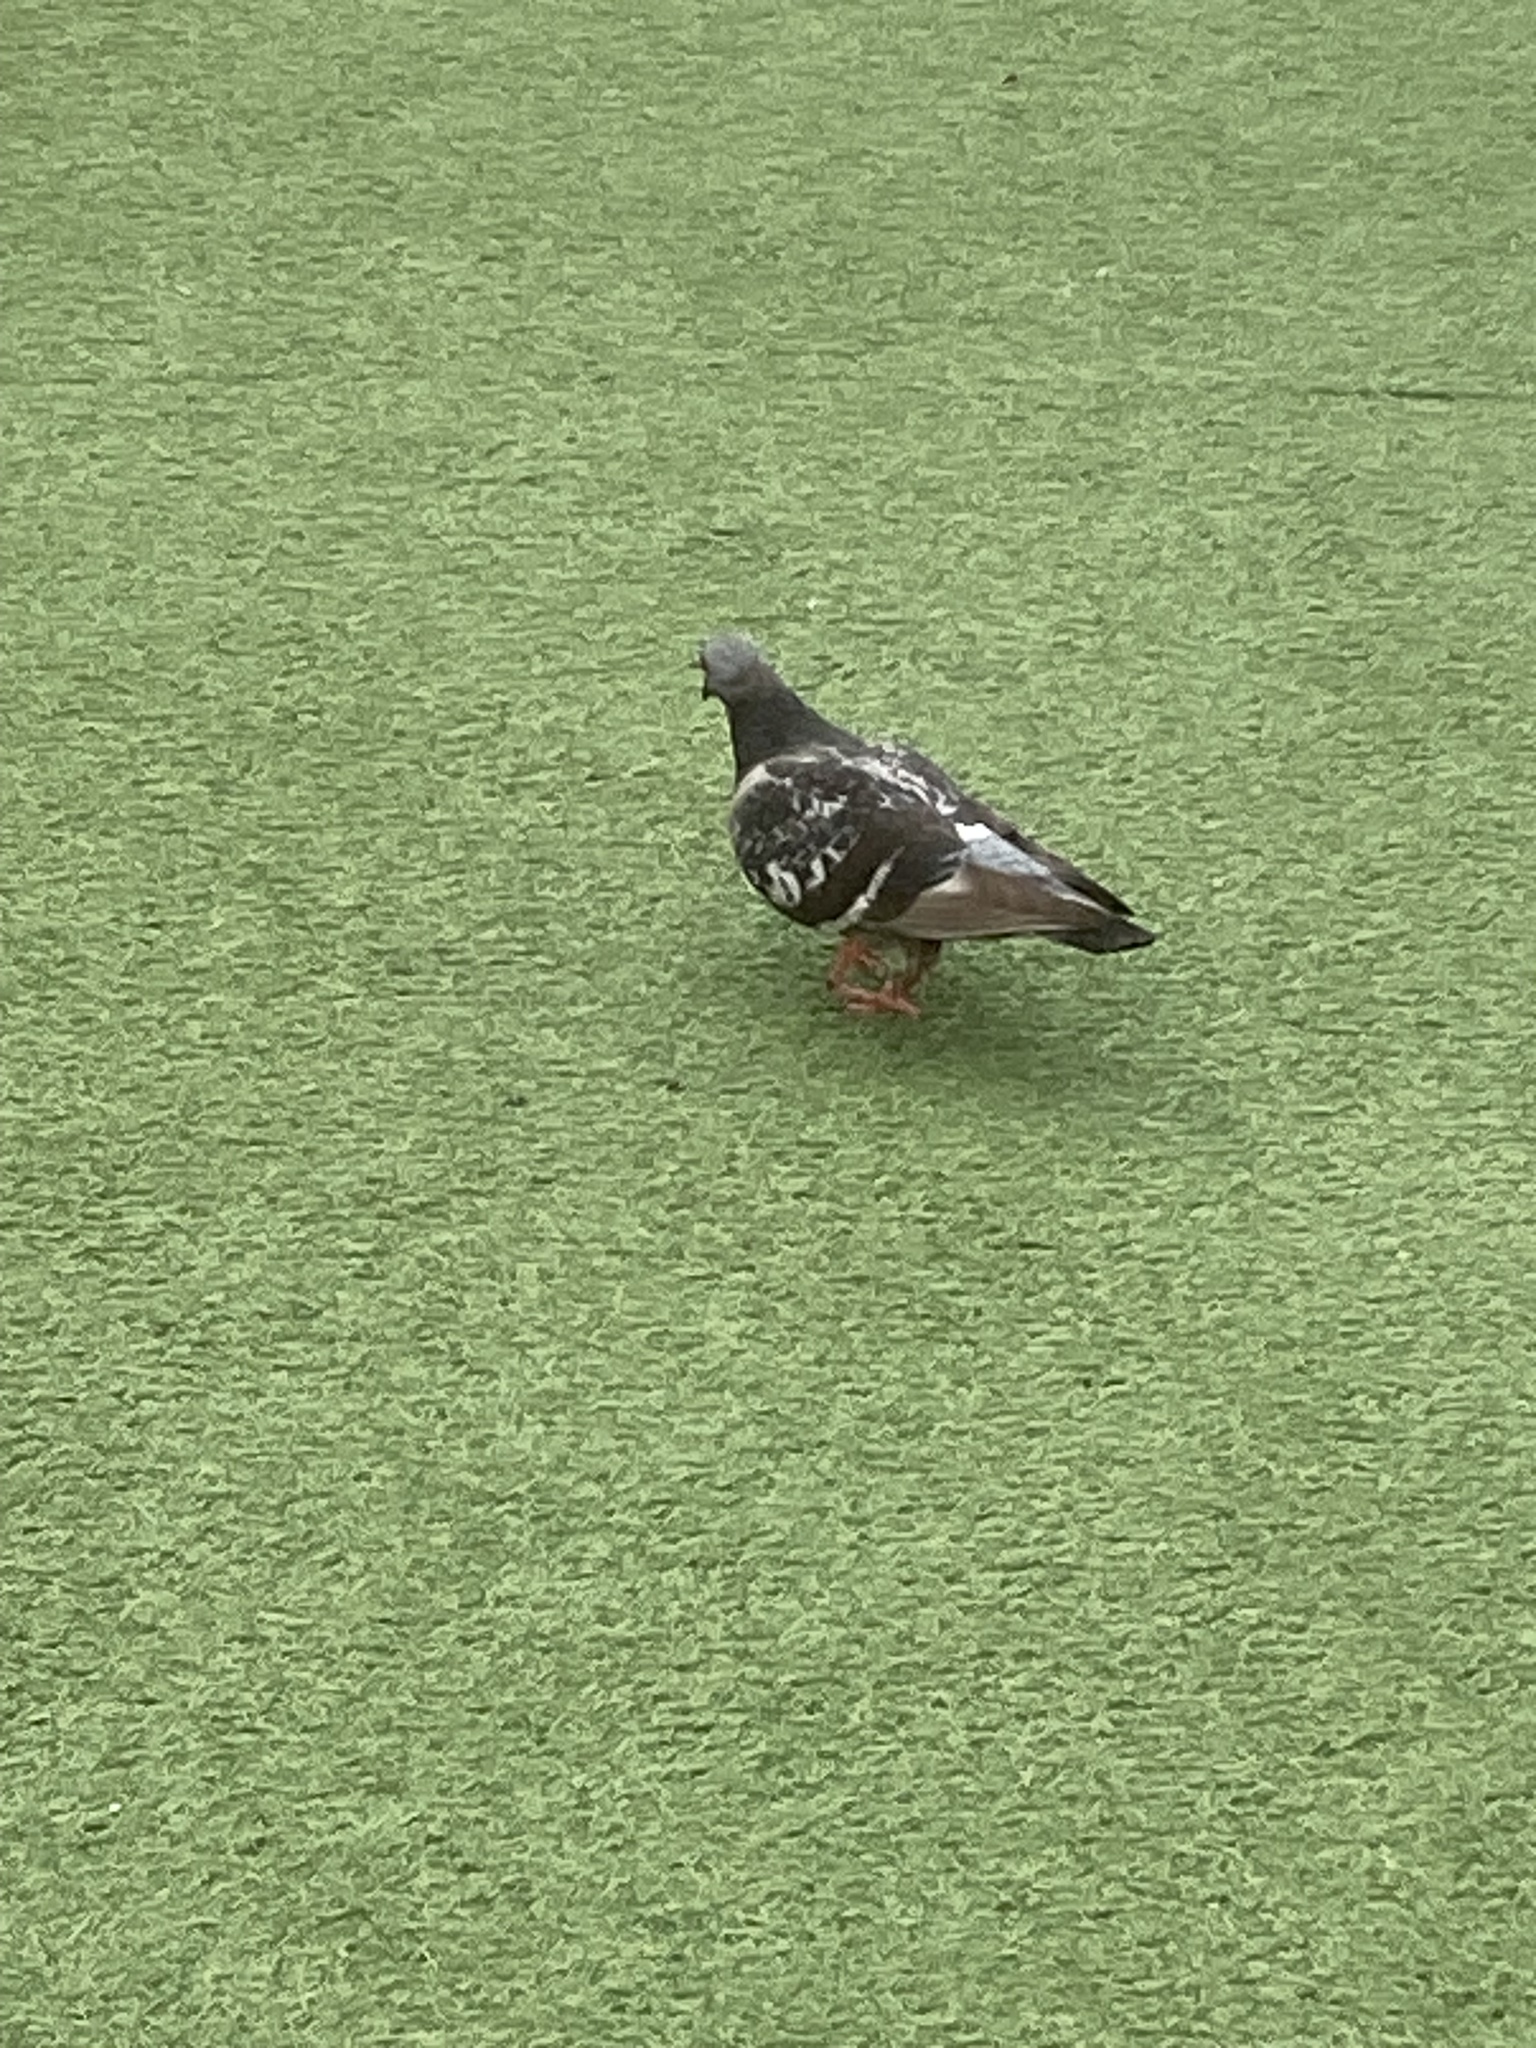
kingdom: Animalia
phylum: Chordata
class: Aves
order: Columbiformes
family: Columbidae
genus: Columba
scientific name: Columba livia
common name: Rock pigeon
